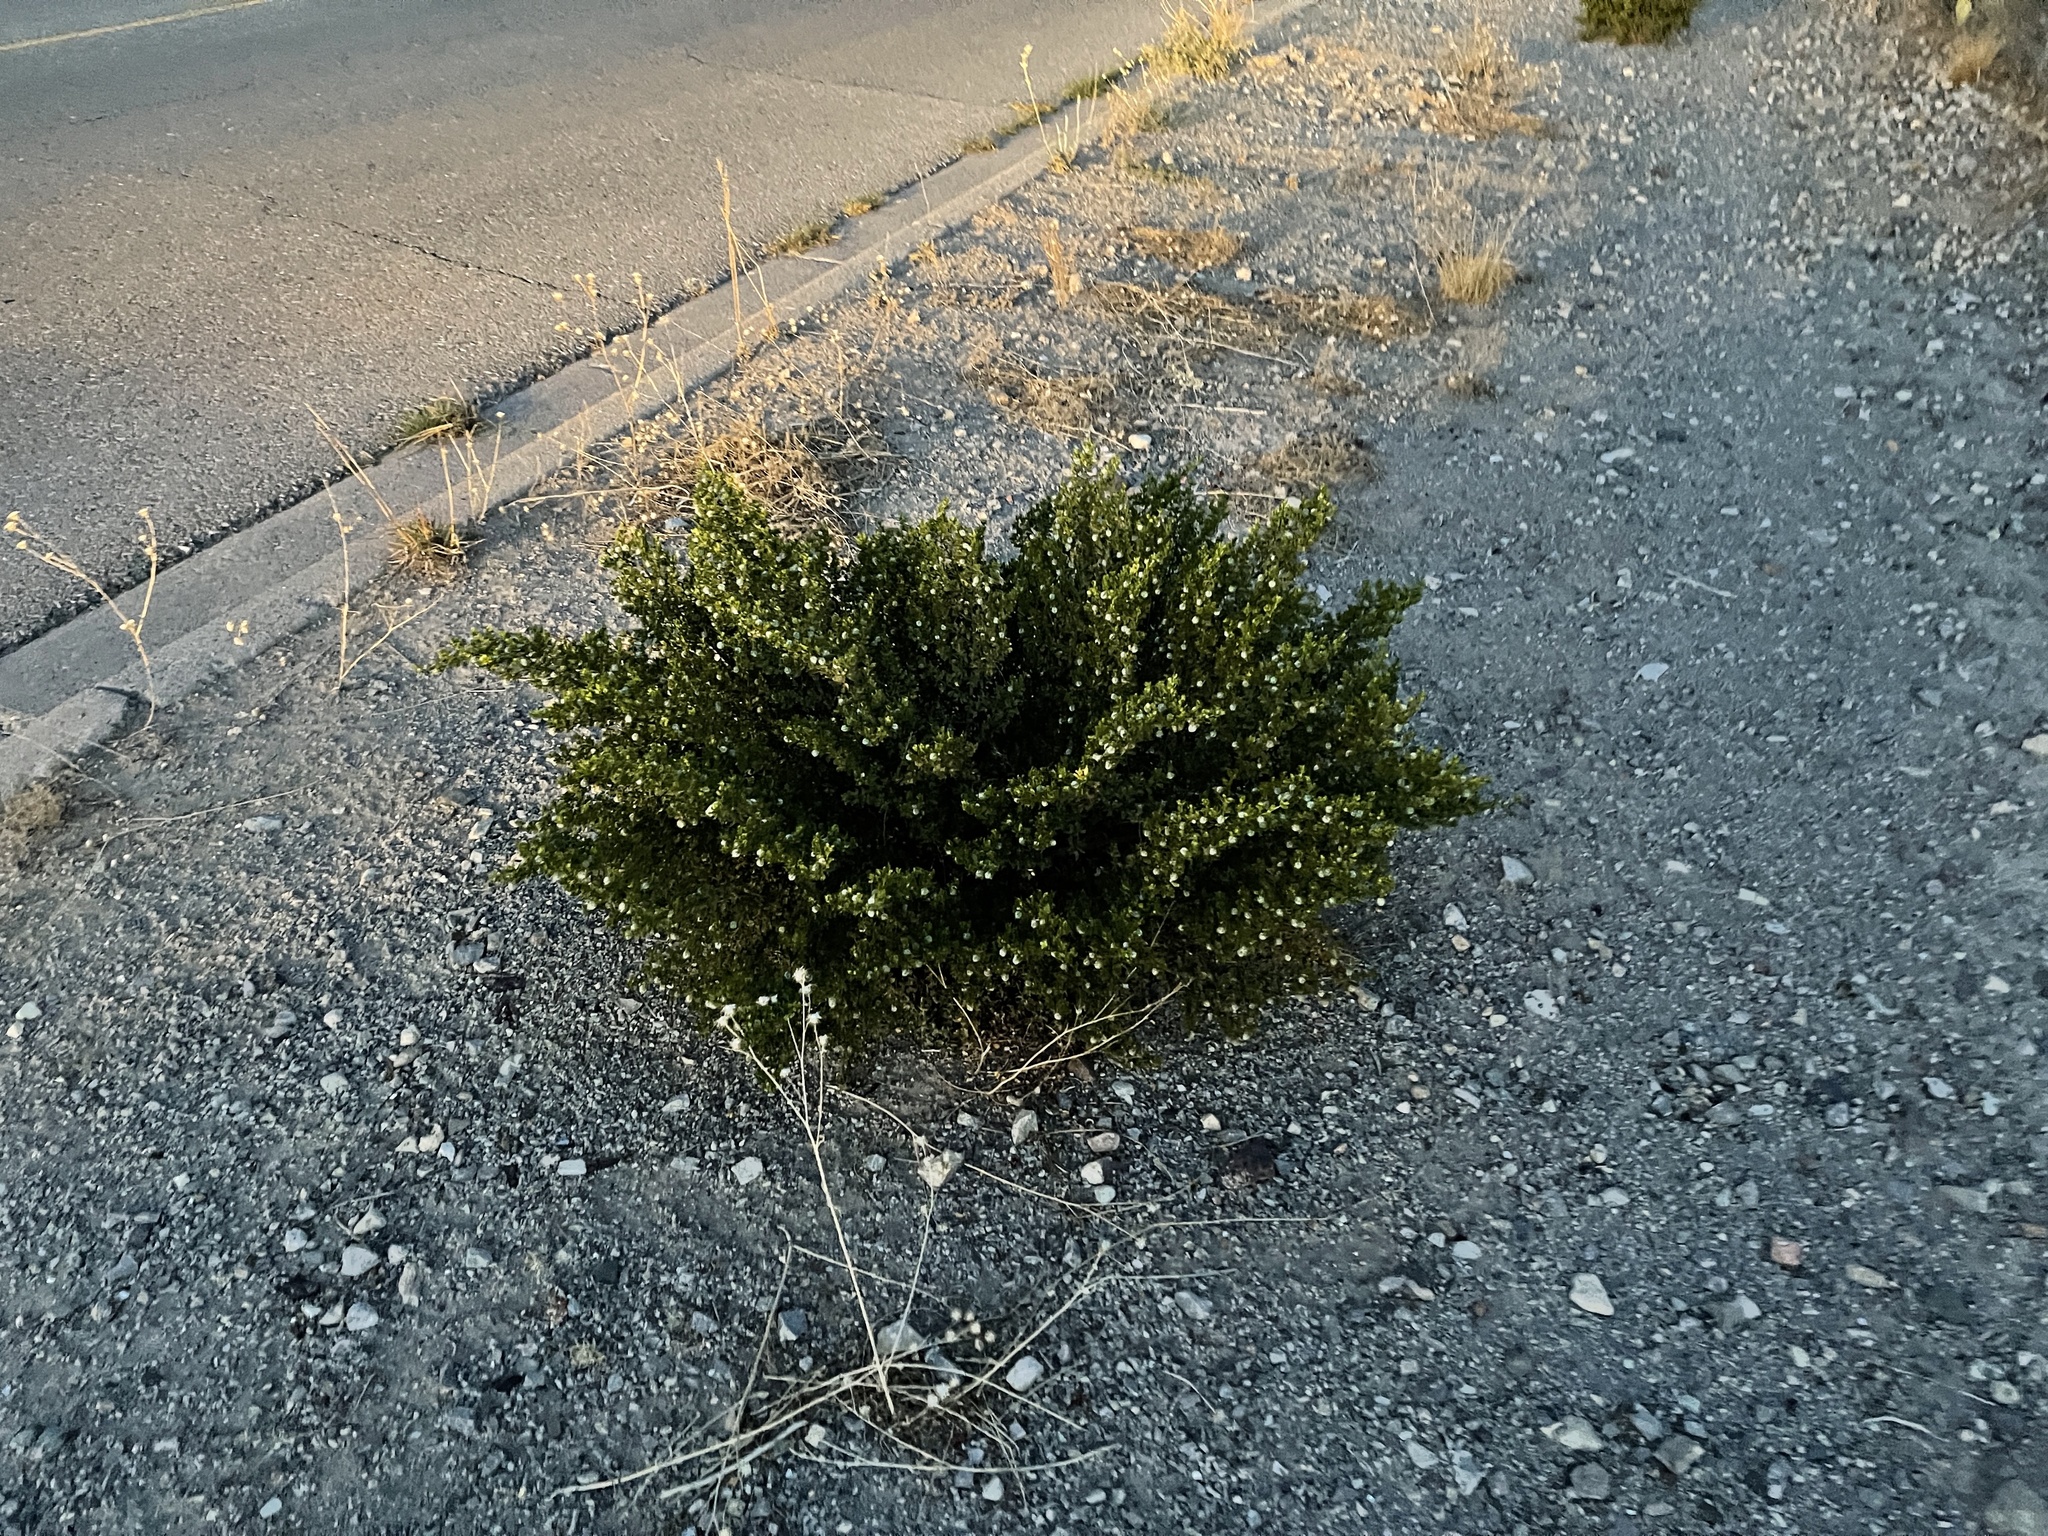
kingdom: Plantae
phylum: Tracheophyta
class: Magnoliopsida
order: Zygophyllales
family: Zygophyllaceae
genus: Larrea
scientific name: Larrea tridentata
